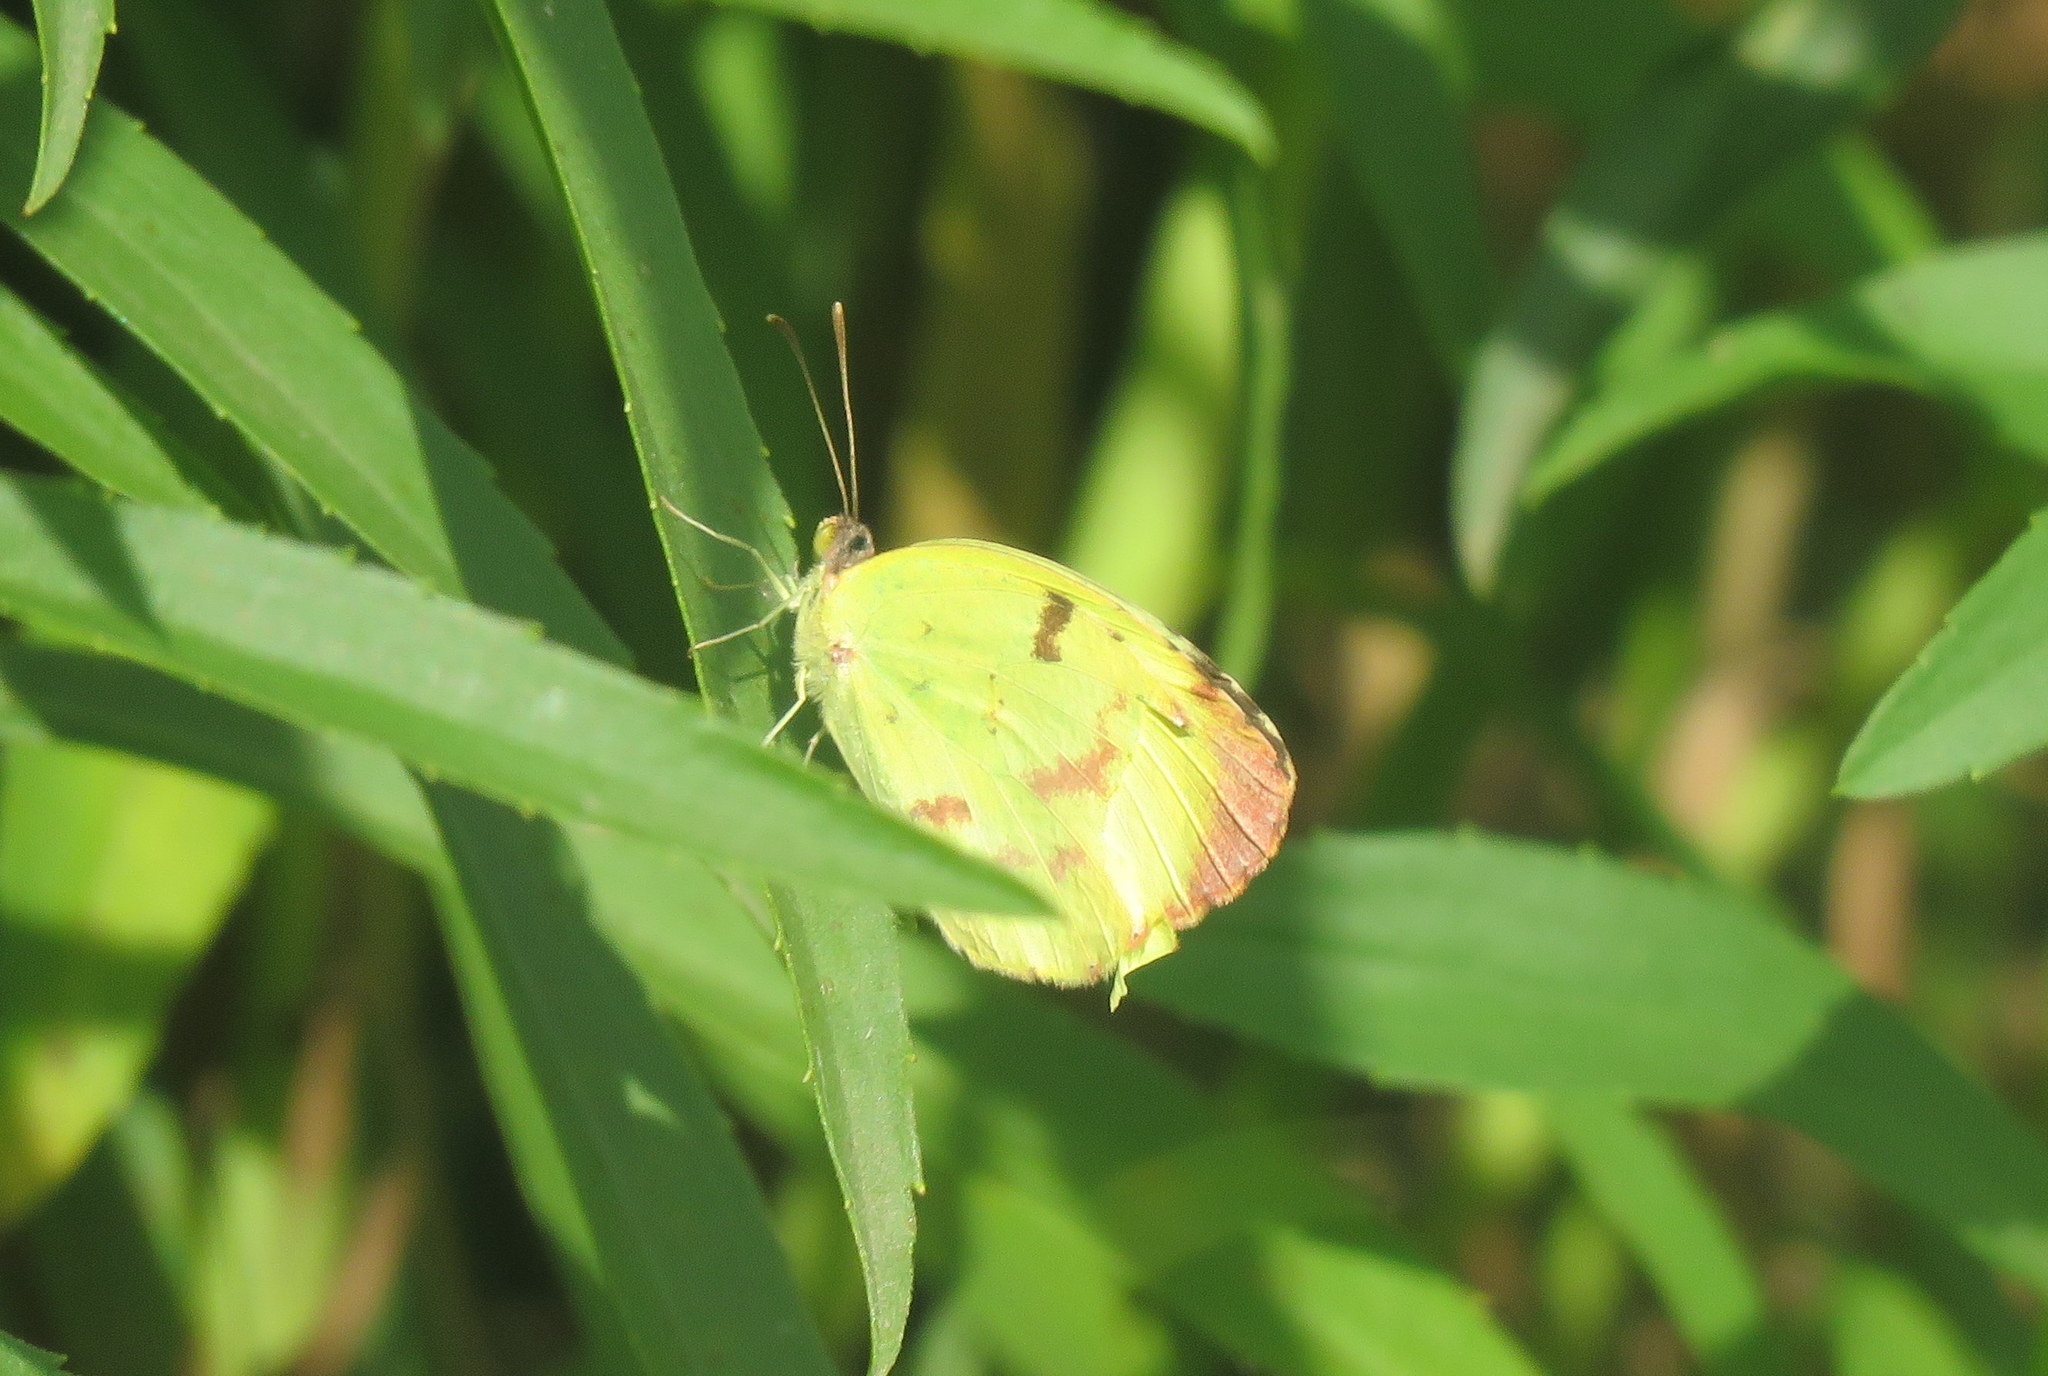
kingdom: Animalia
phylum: Arthropoda
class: Insecta
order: Lepidoptera
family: Pieridae
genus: Teriocolias
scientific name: Teriocolias
